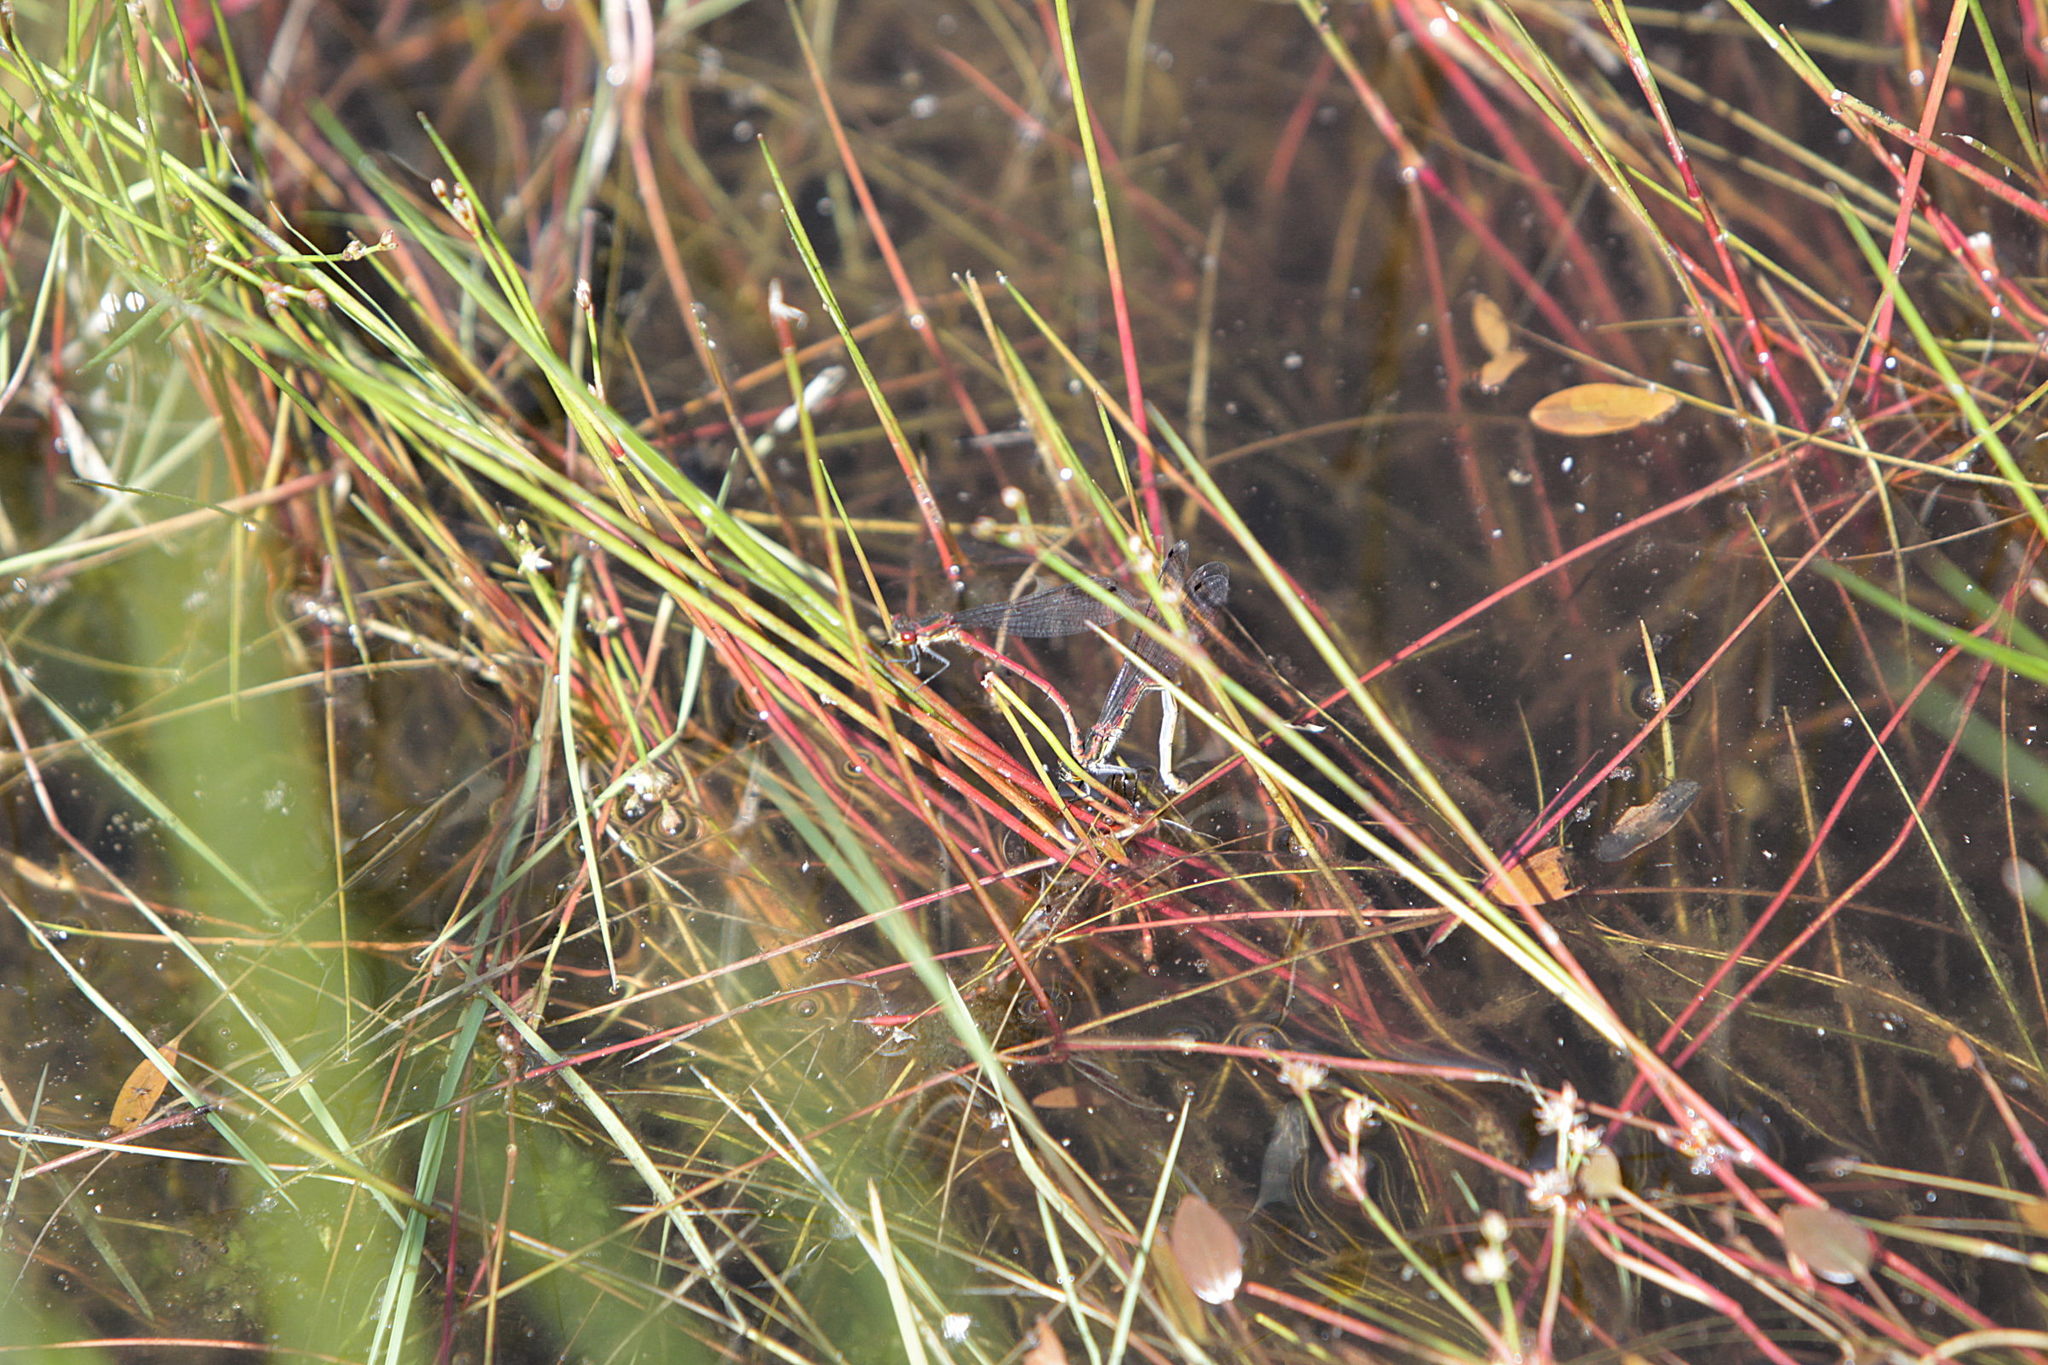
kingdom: Animalia
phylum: Arthropoda
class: Insecta
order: Odonata
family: Coenagrionidae
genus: Pyrrhosoma
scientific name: Pyrrhosoma nymphula
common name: Large red damsel
